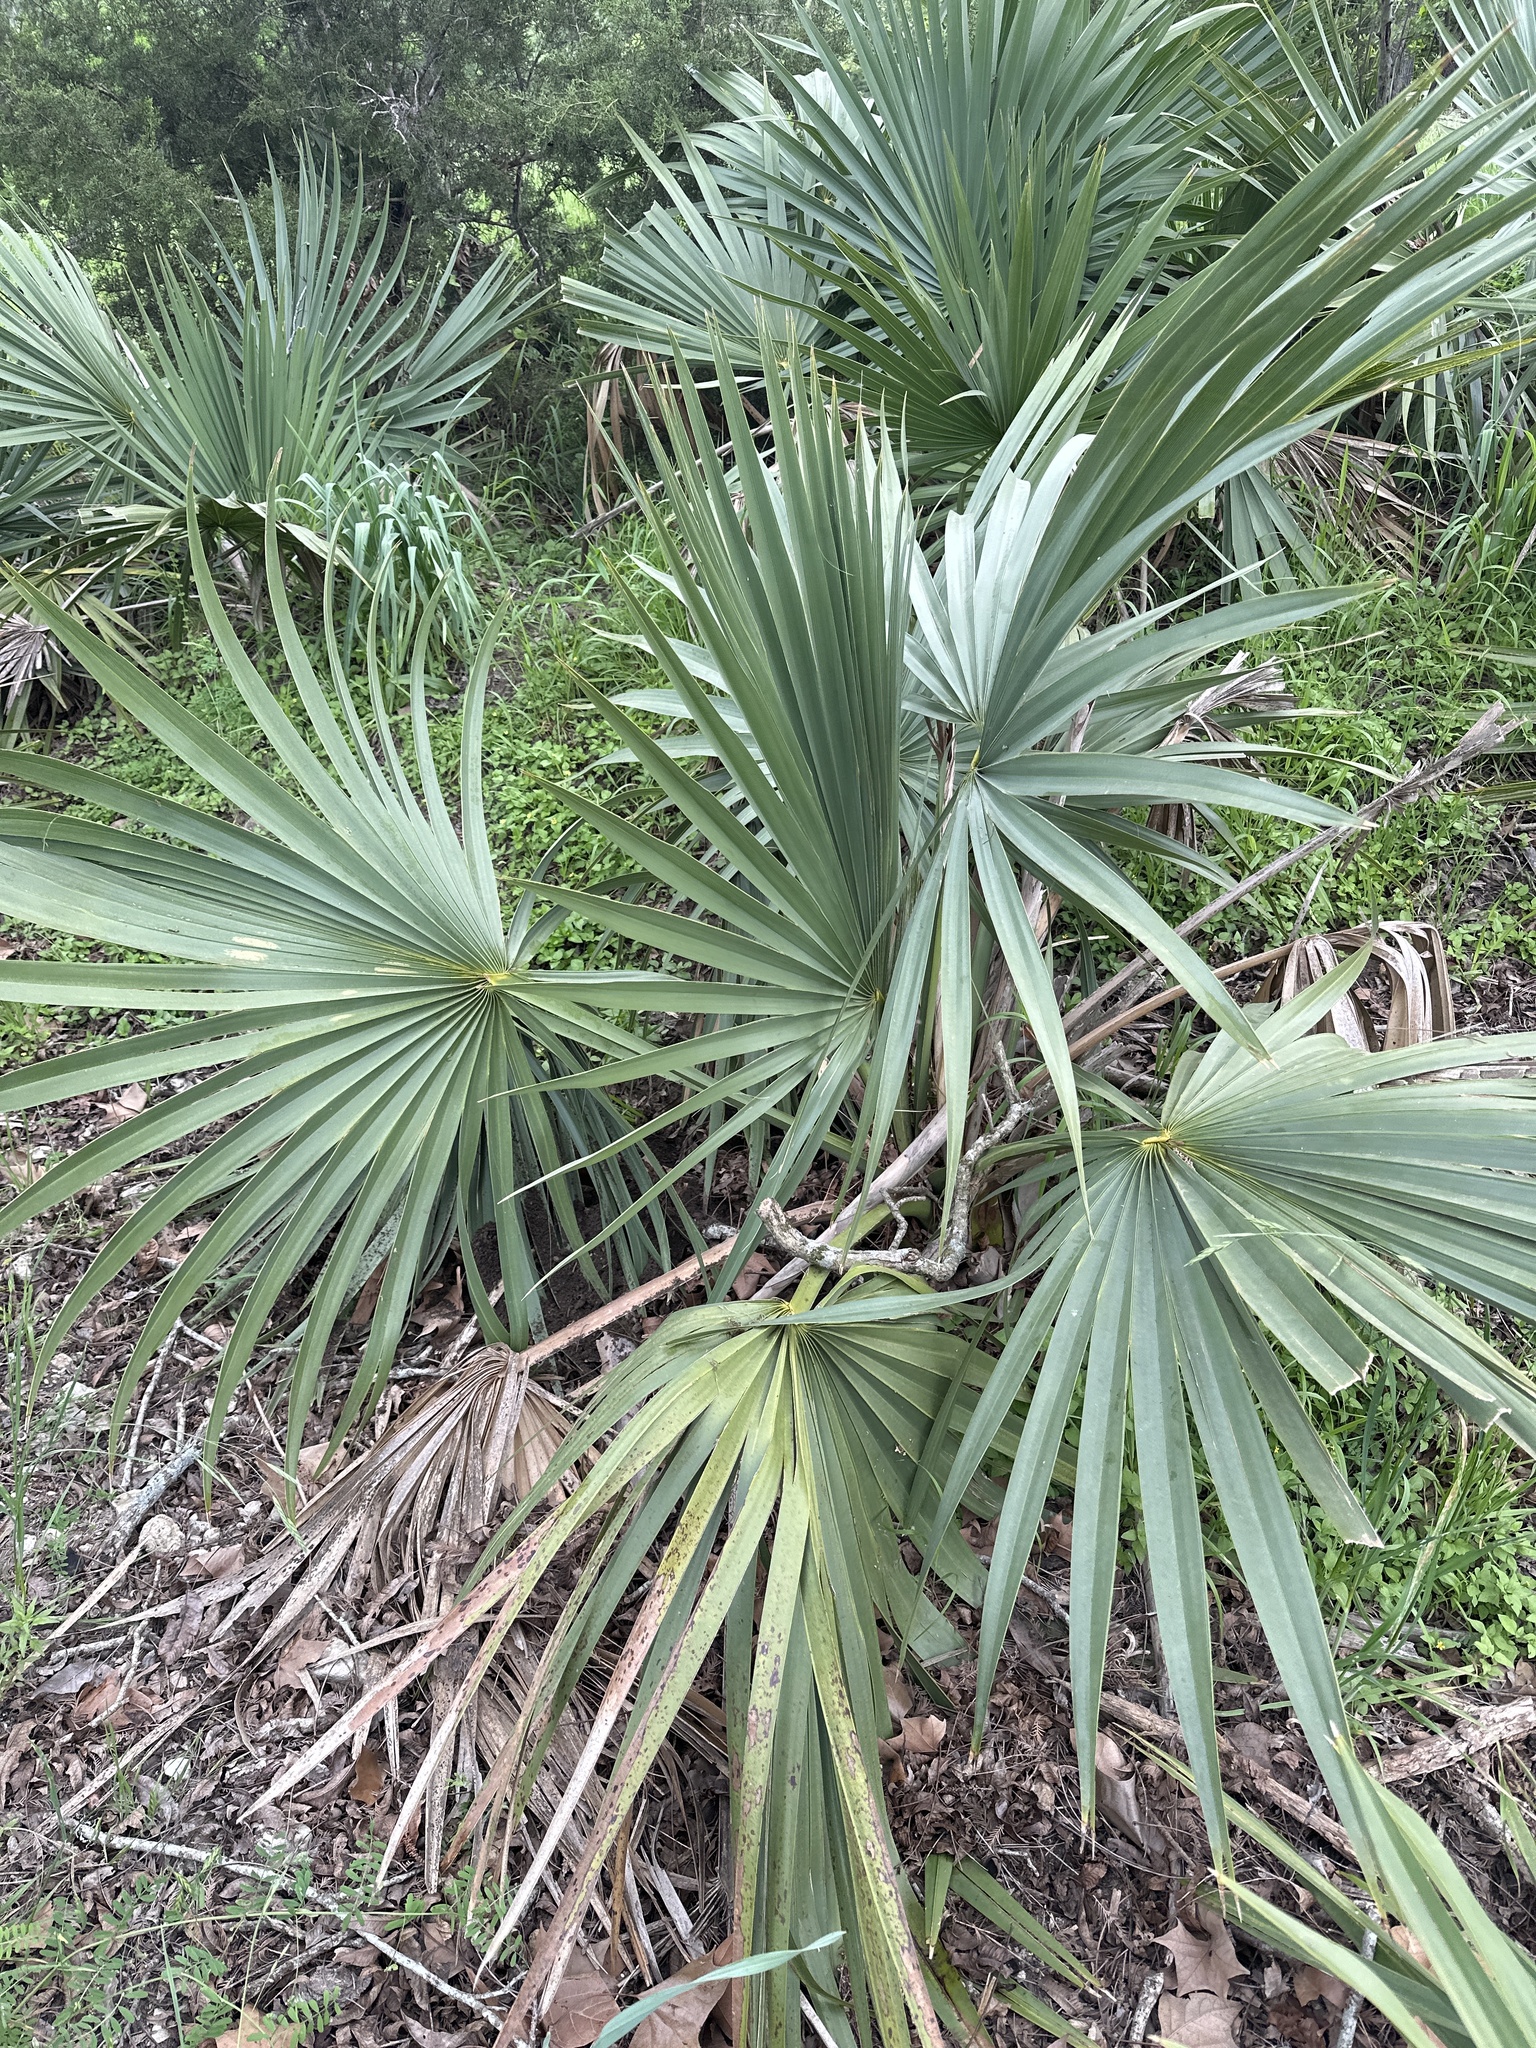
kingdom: Plantae
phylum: Tracheophyta
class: Liliopsida
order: Arecales
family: Arecaceae
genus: Sabal
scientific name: Sabal minor
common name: Dwarf palmetto
